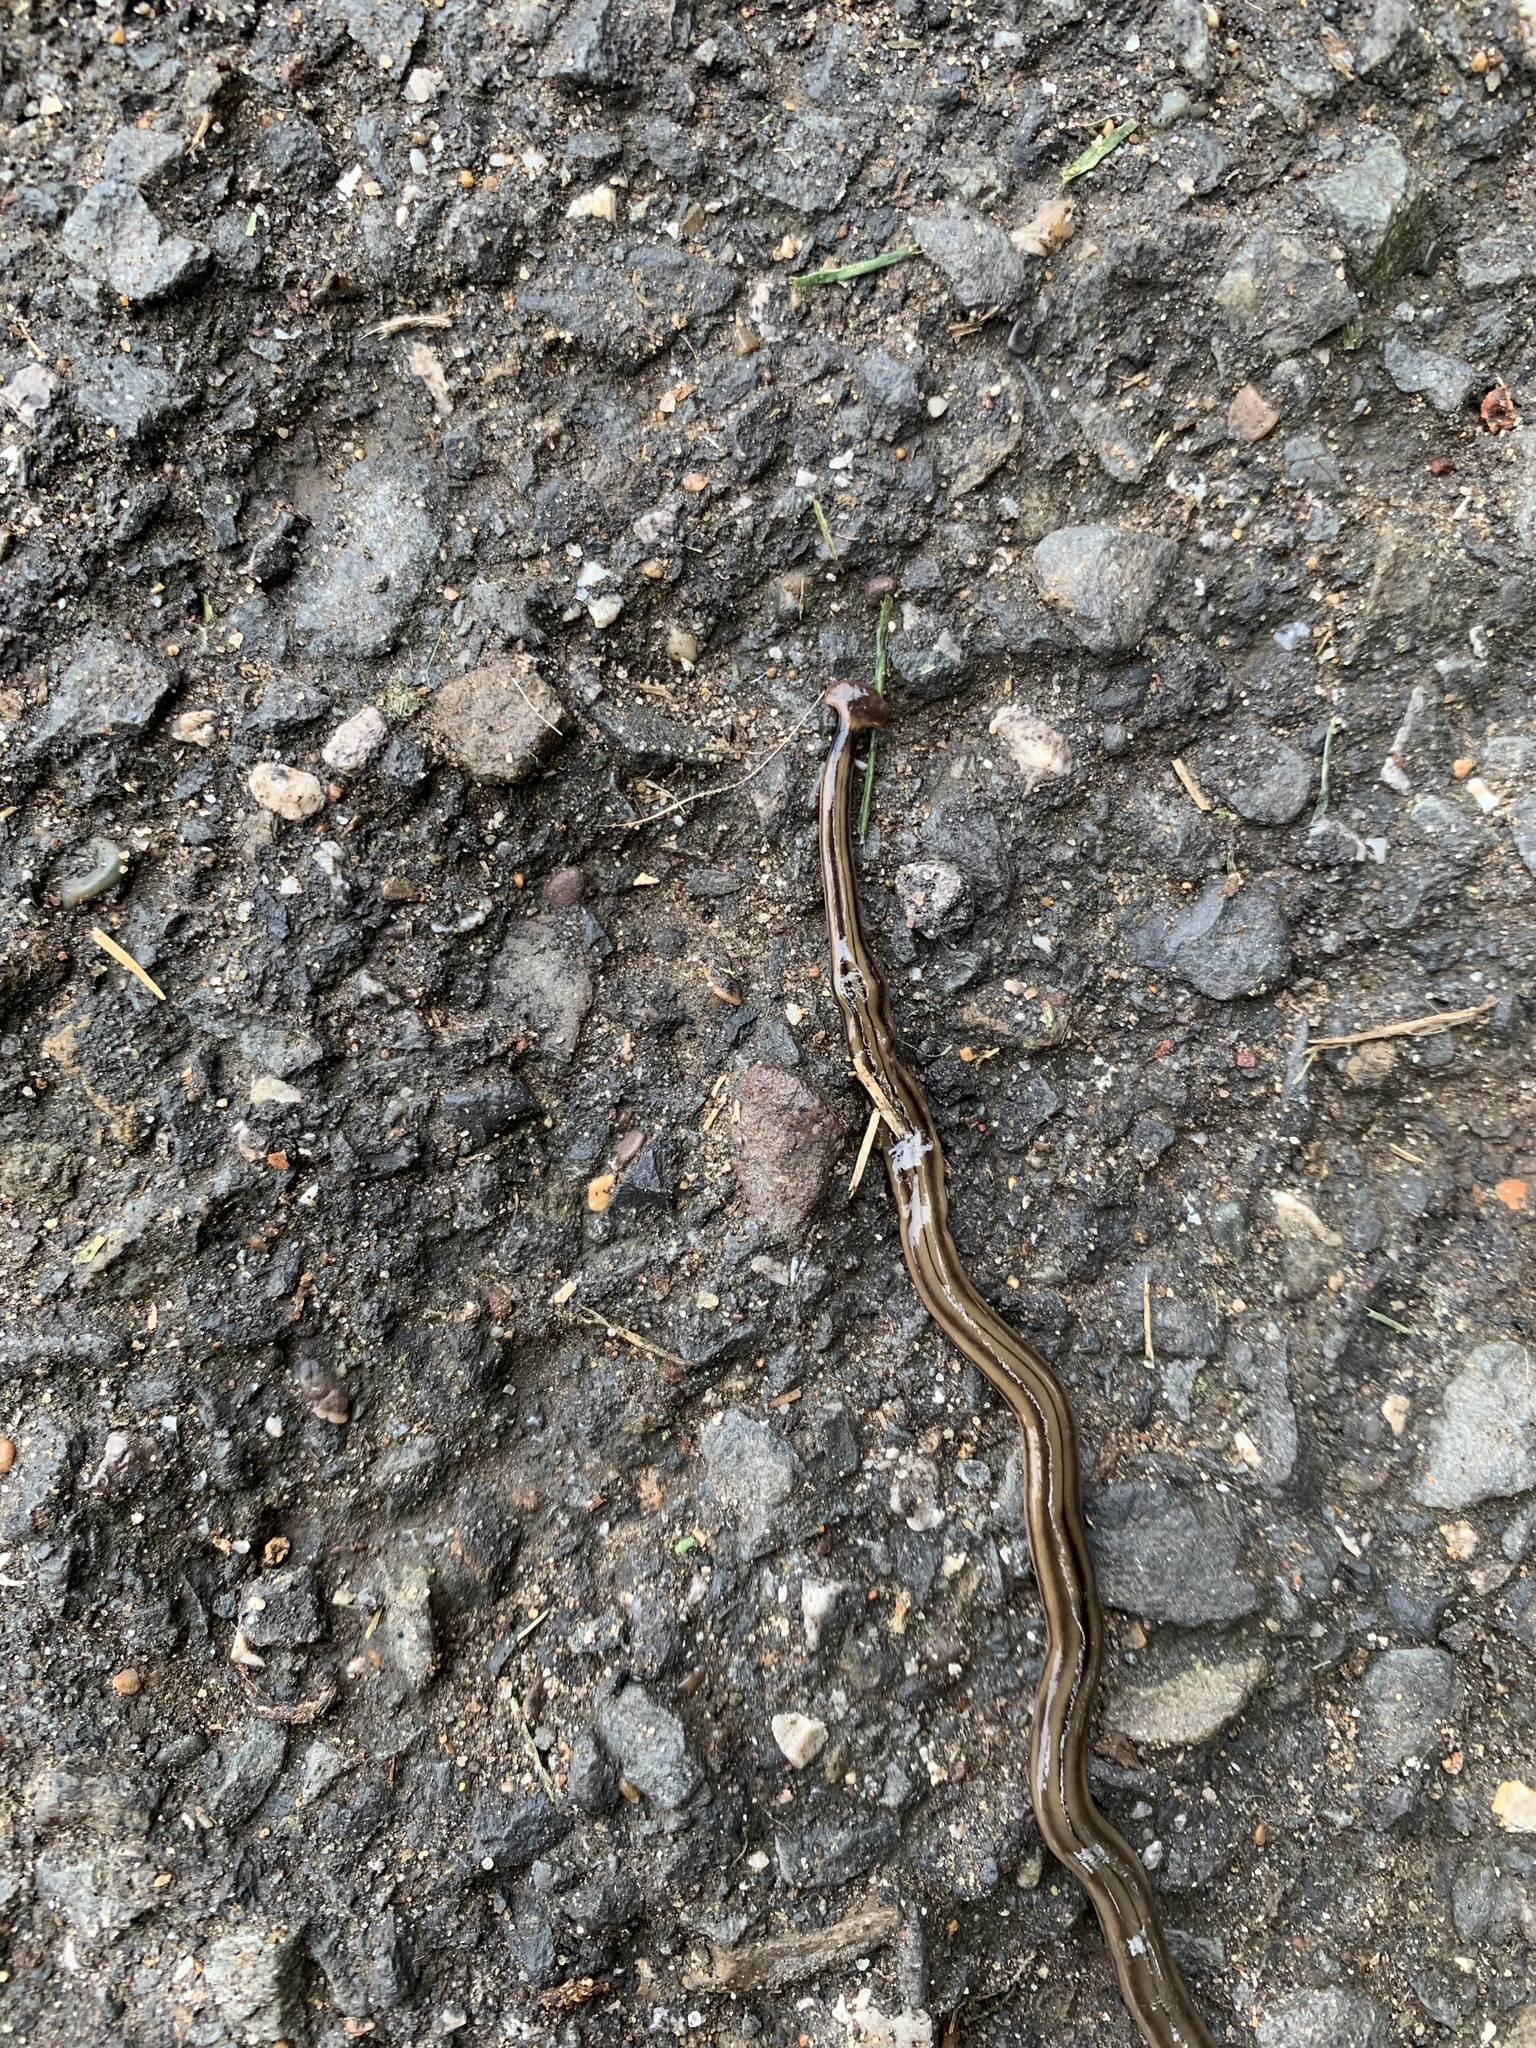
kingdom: Animalia
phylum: Platyhelminthes
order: Tricladida
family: Geoplanidae
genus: Bipalium
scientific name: Bipalium kewense
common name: Hammerhead flatworm
